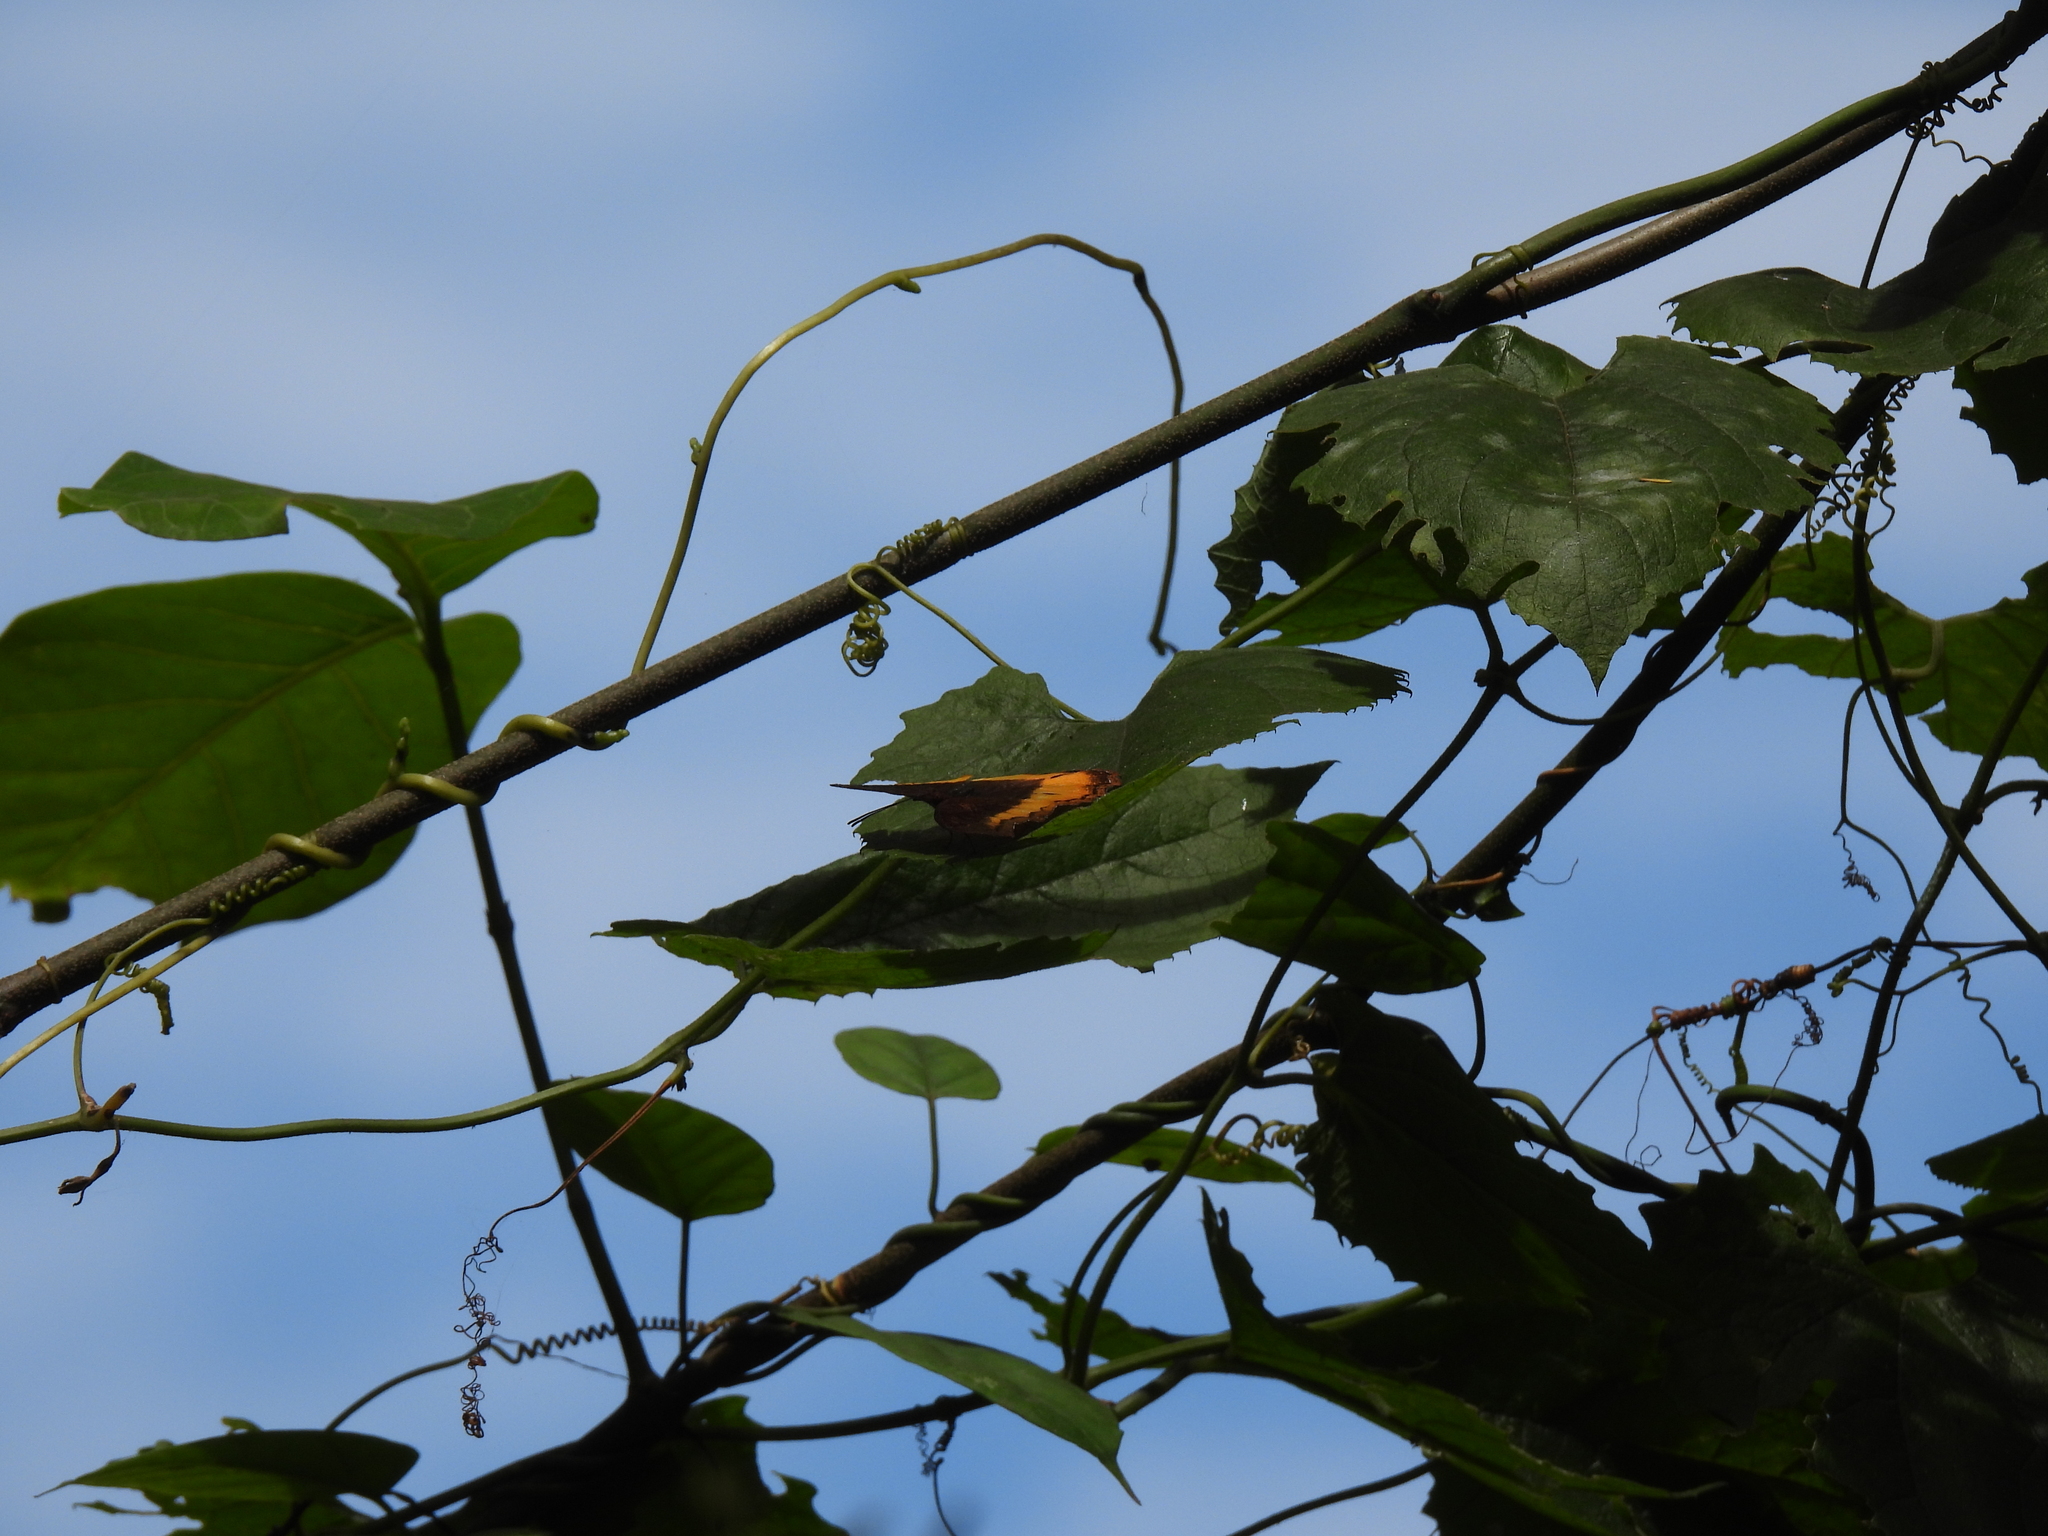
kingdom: Animalia
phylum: Arthropoda
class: Insecta
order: Lepidoptera
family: Nymphalidae
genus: Eurytela
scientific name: Eurytela dryope
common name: Golden piper
